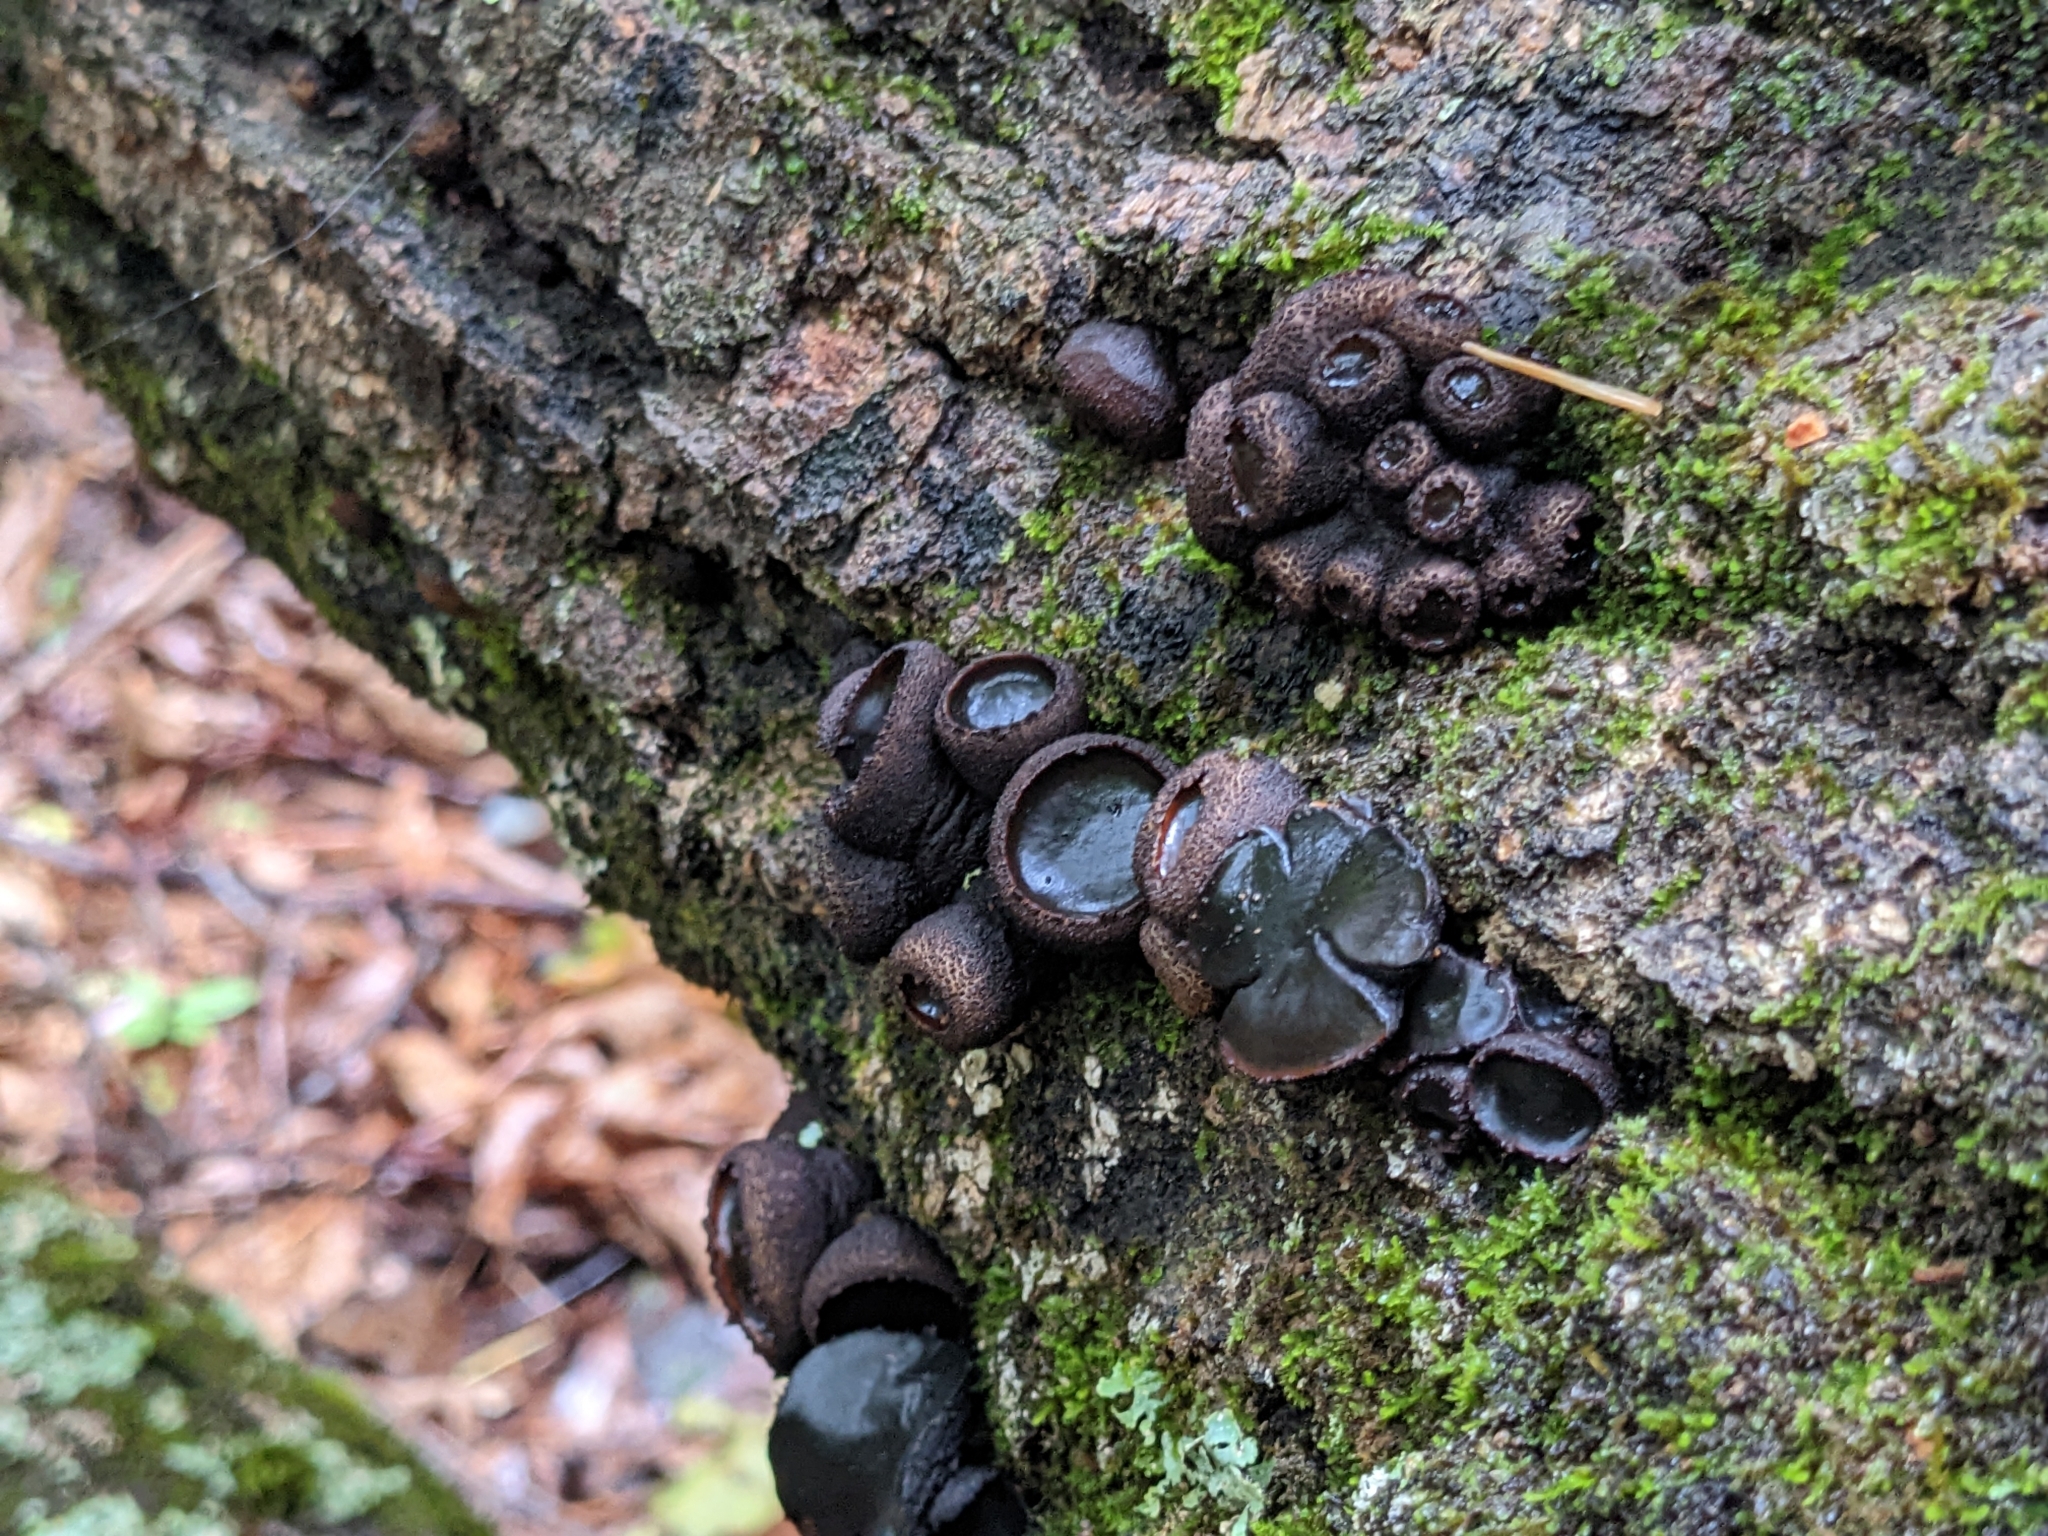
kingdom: Fungi
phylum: Ascomycota
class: Leotiomycetes
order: Phacidiales
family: Phacidiaceae
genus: Bulgaria
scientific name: Bulgaria inquinans
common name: Black bulgar
